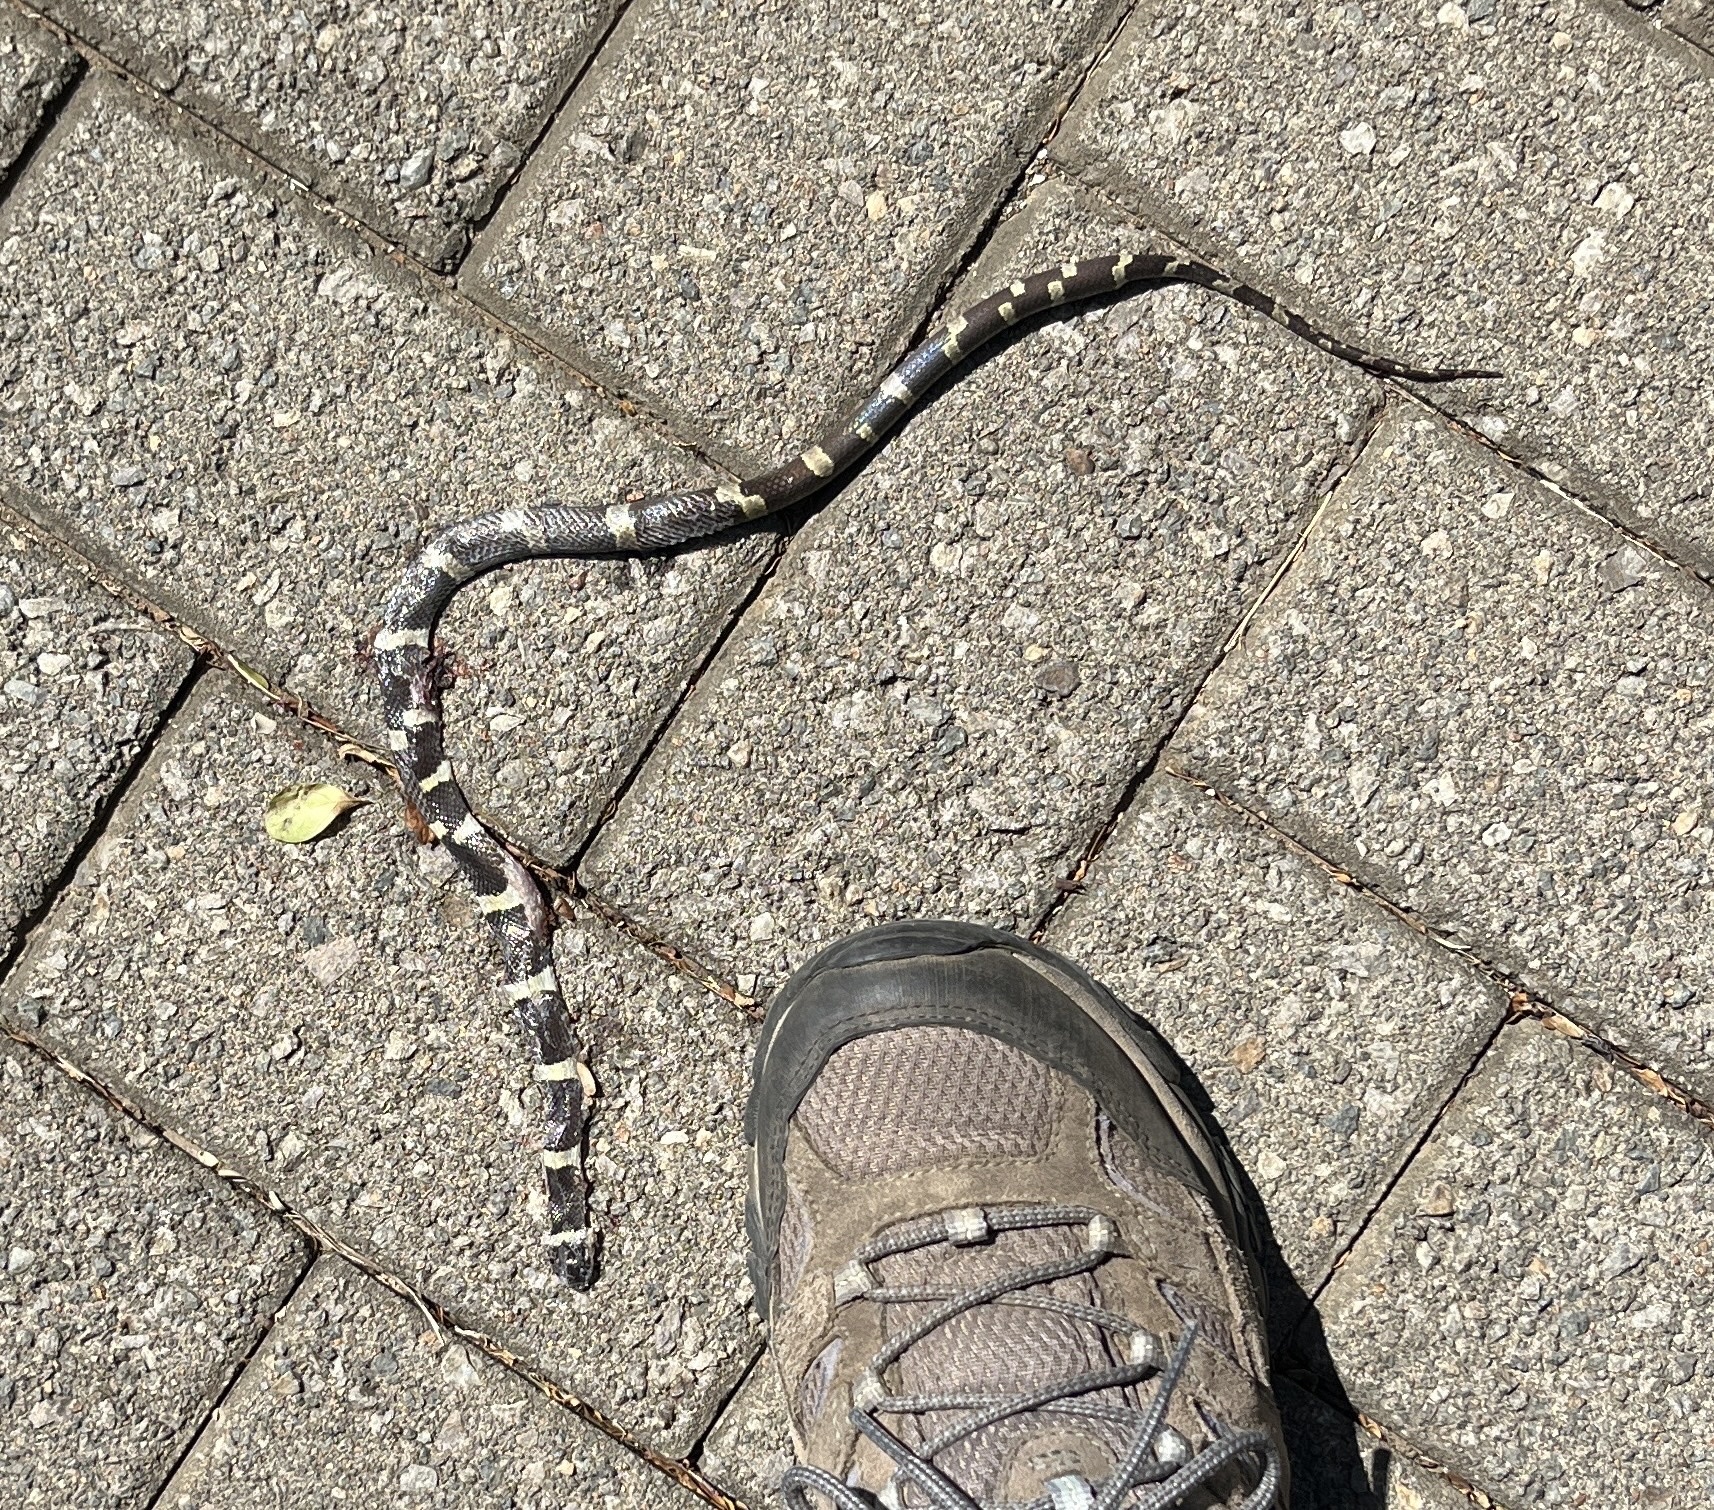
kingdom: Animalia
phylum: Chordata
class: Squamata
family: Colubridae
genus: Leptodeira
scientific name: Leptodeira nigrofasciata
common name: Black-banded cat-eyed snake
